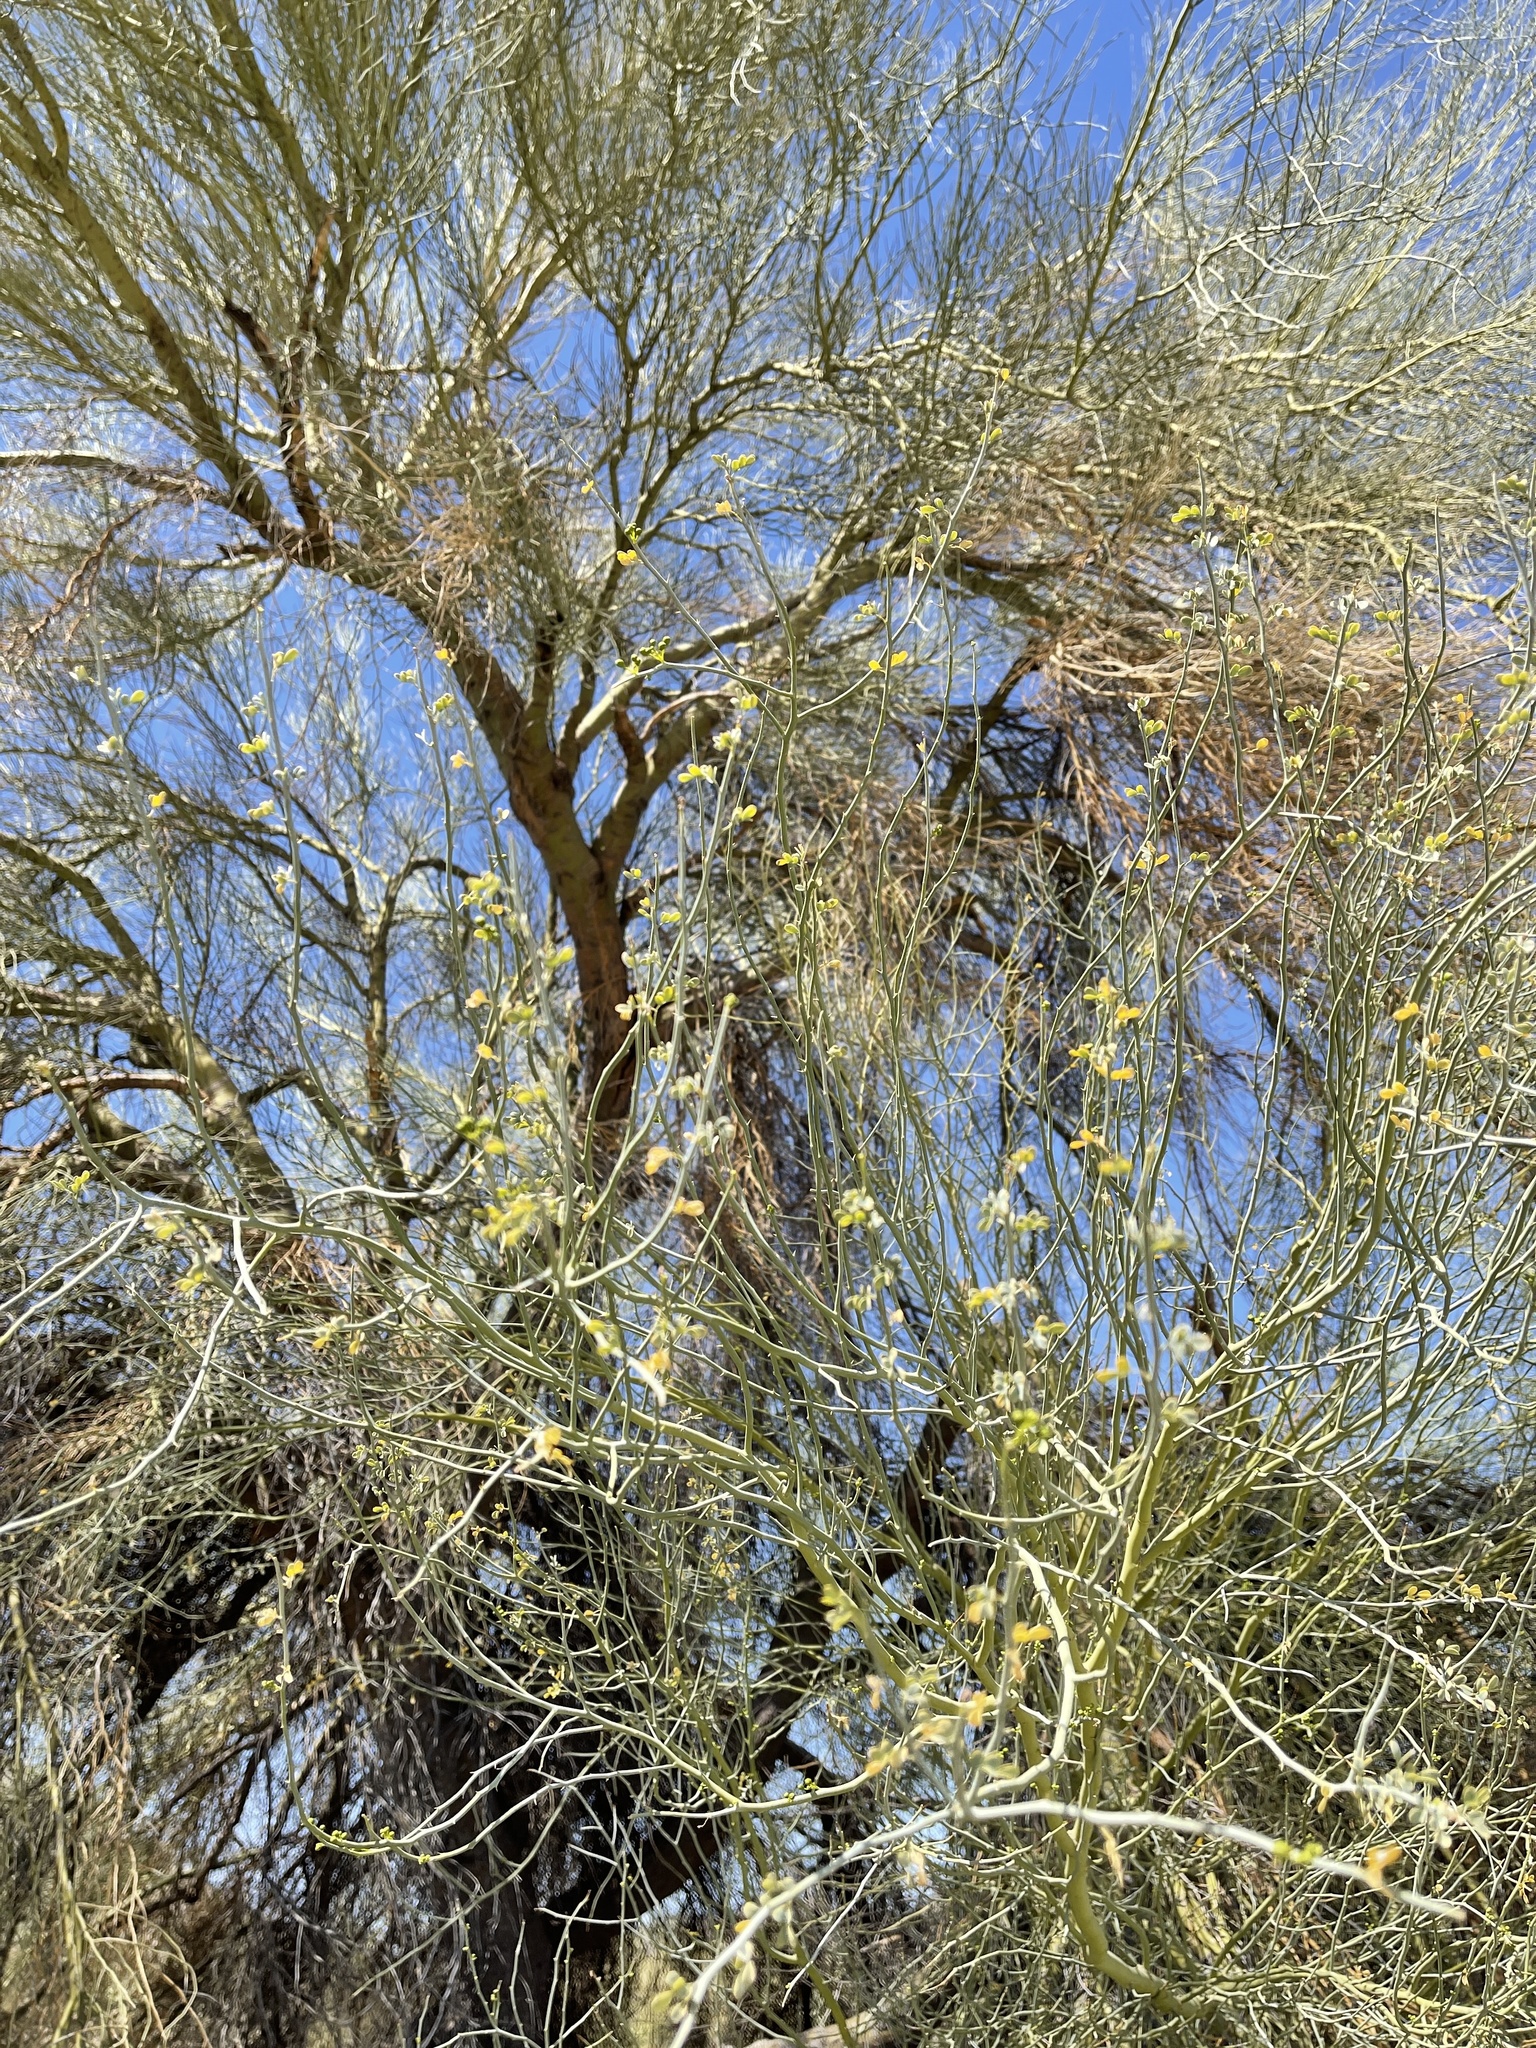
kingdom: Plantae
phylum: Tracheophyta
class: Magnoliopsida
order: Fabales
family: Fabaceae
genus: Parkinsonia
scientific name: Parkinsonia florida
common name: Blue paloverde
